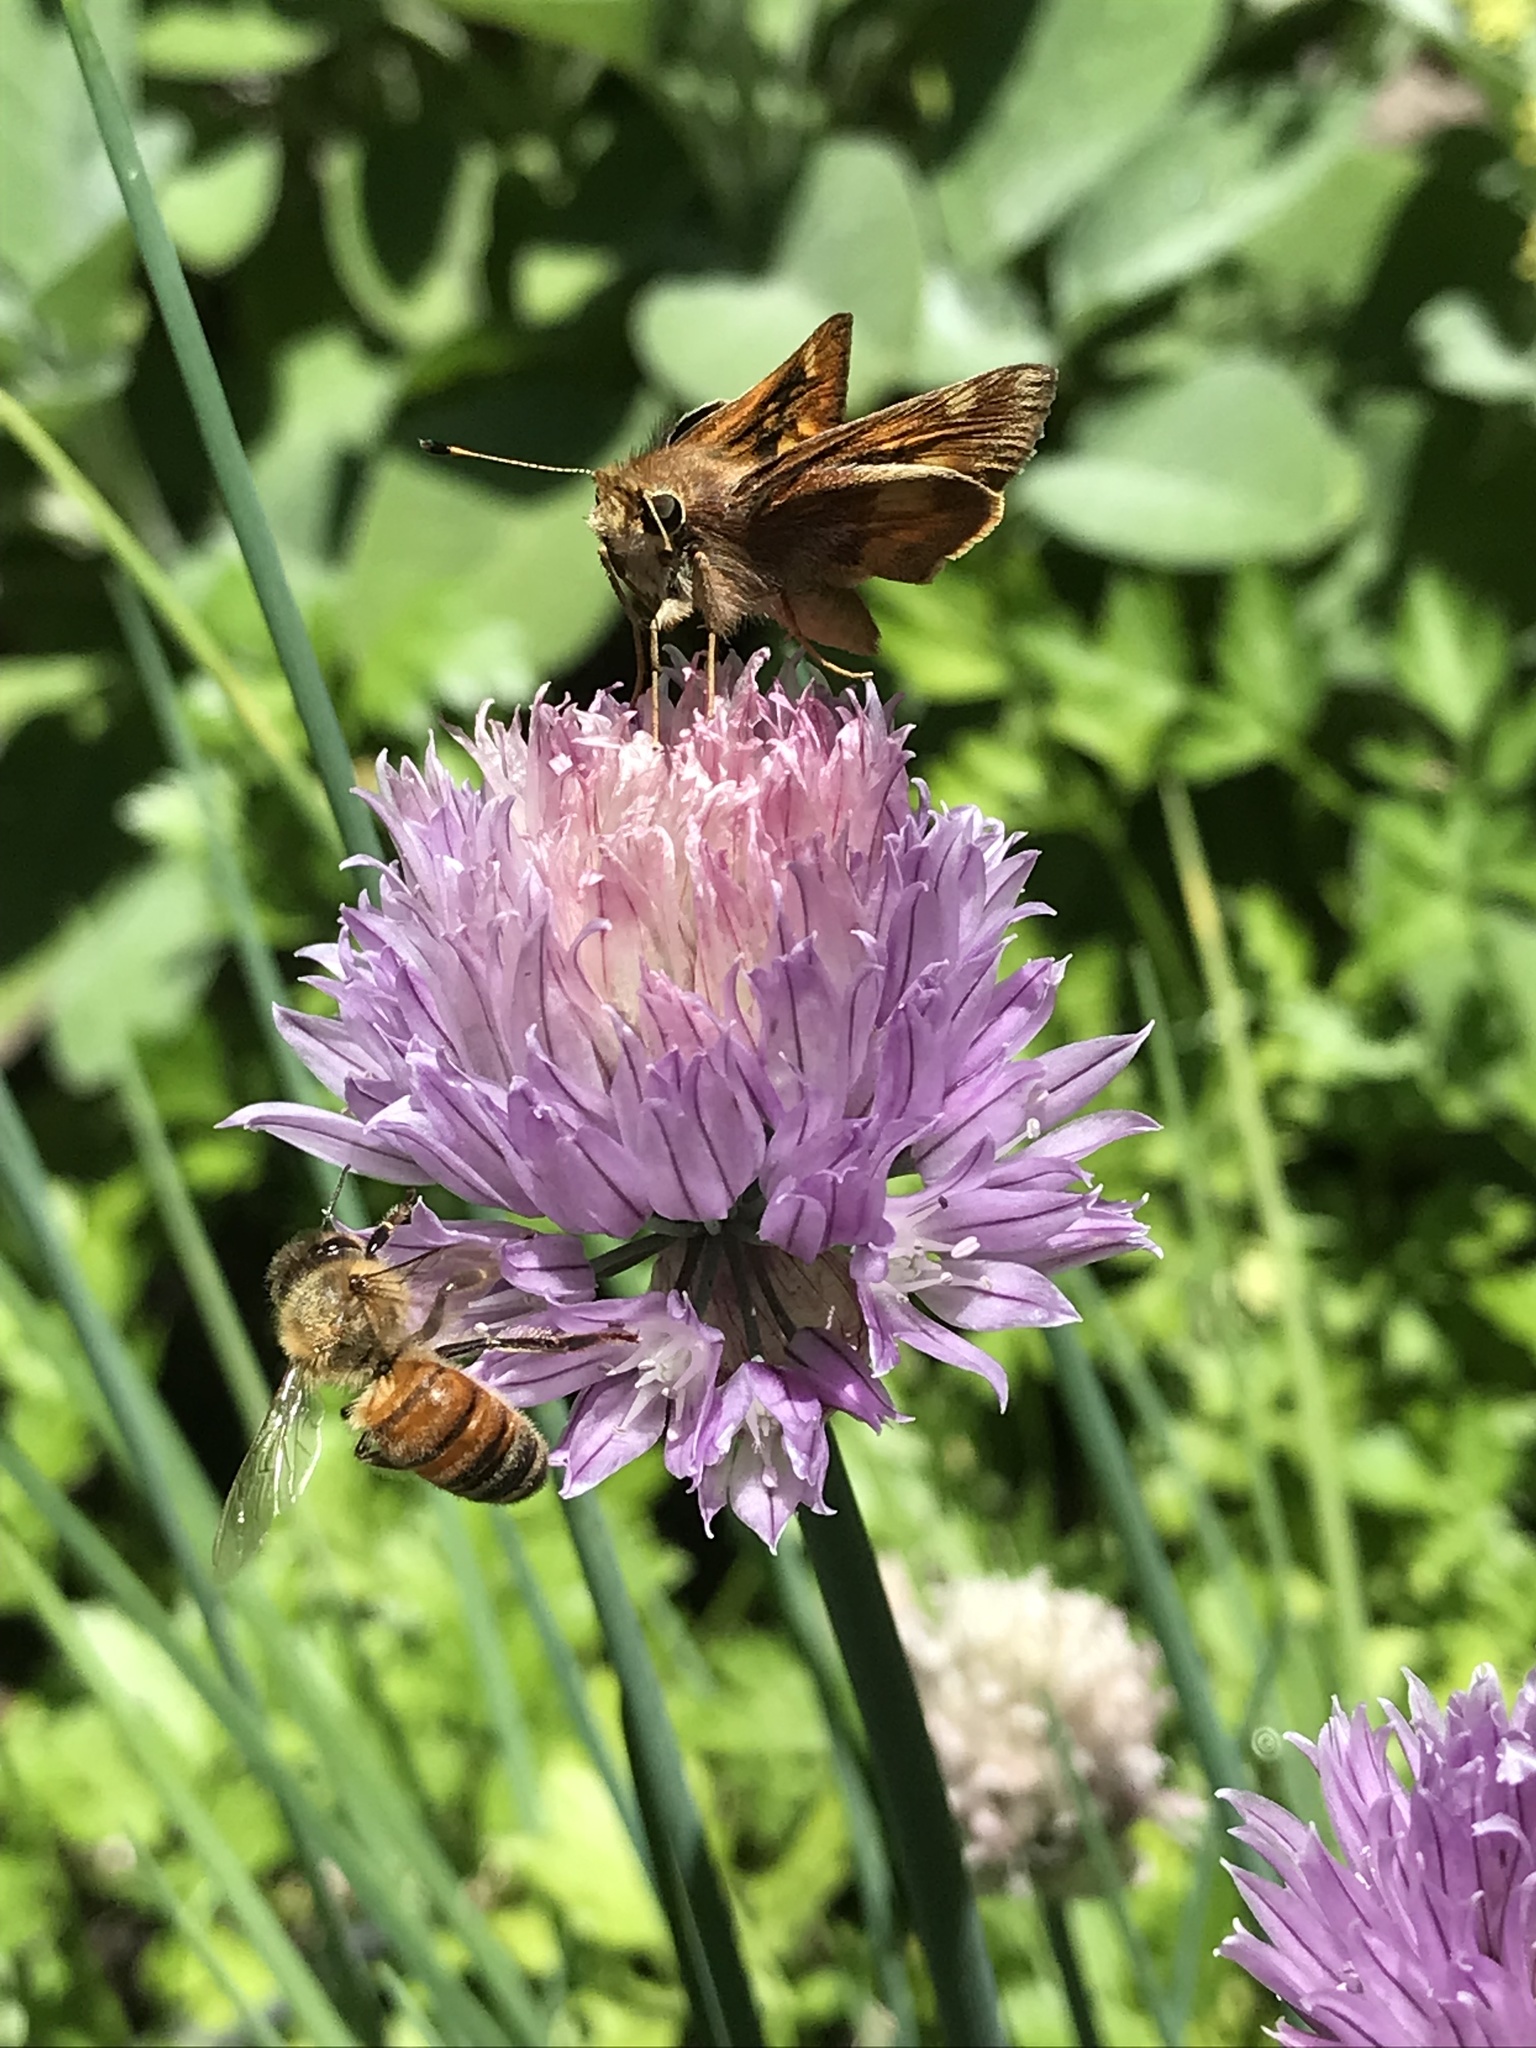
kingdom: Animalia
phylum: Arthropoda
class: Insecta
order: Lepidoptera
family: Hesperiidae
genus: Lon
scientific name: Lon melane
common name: Umber skipper
